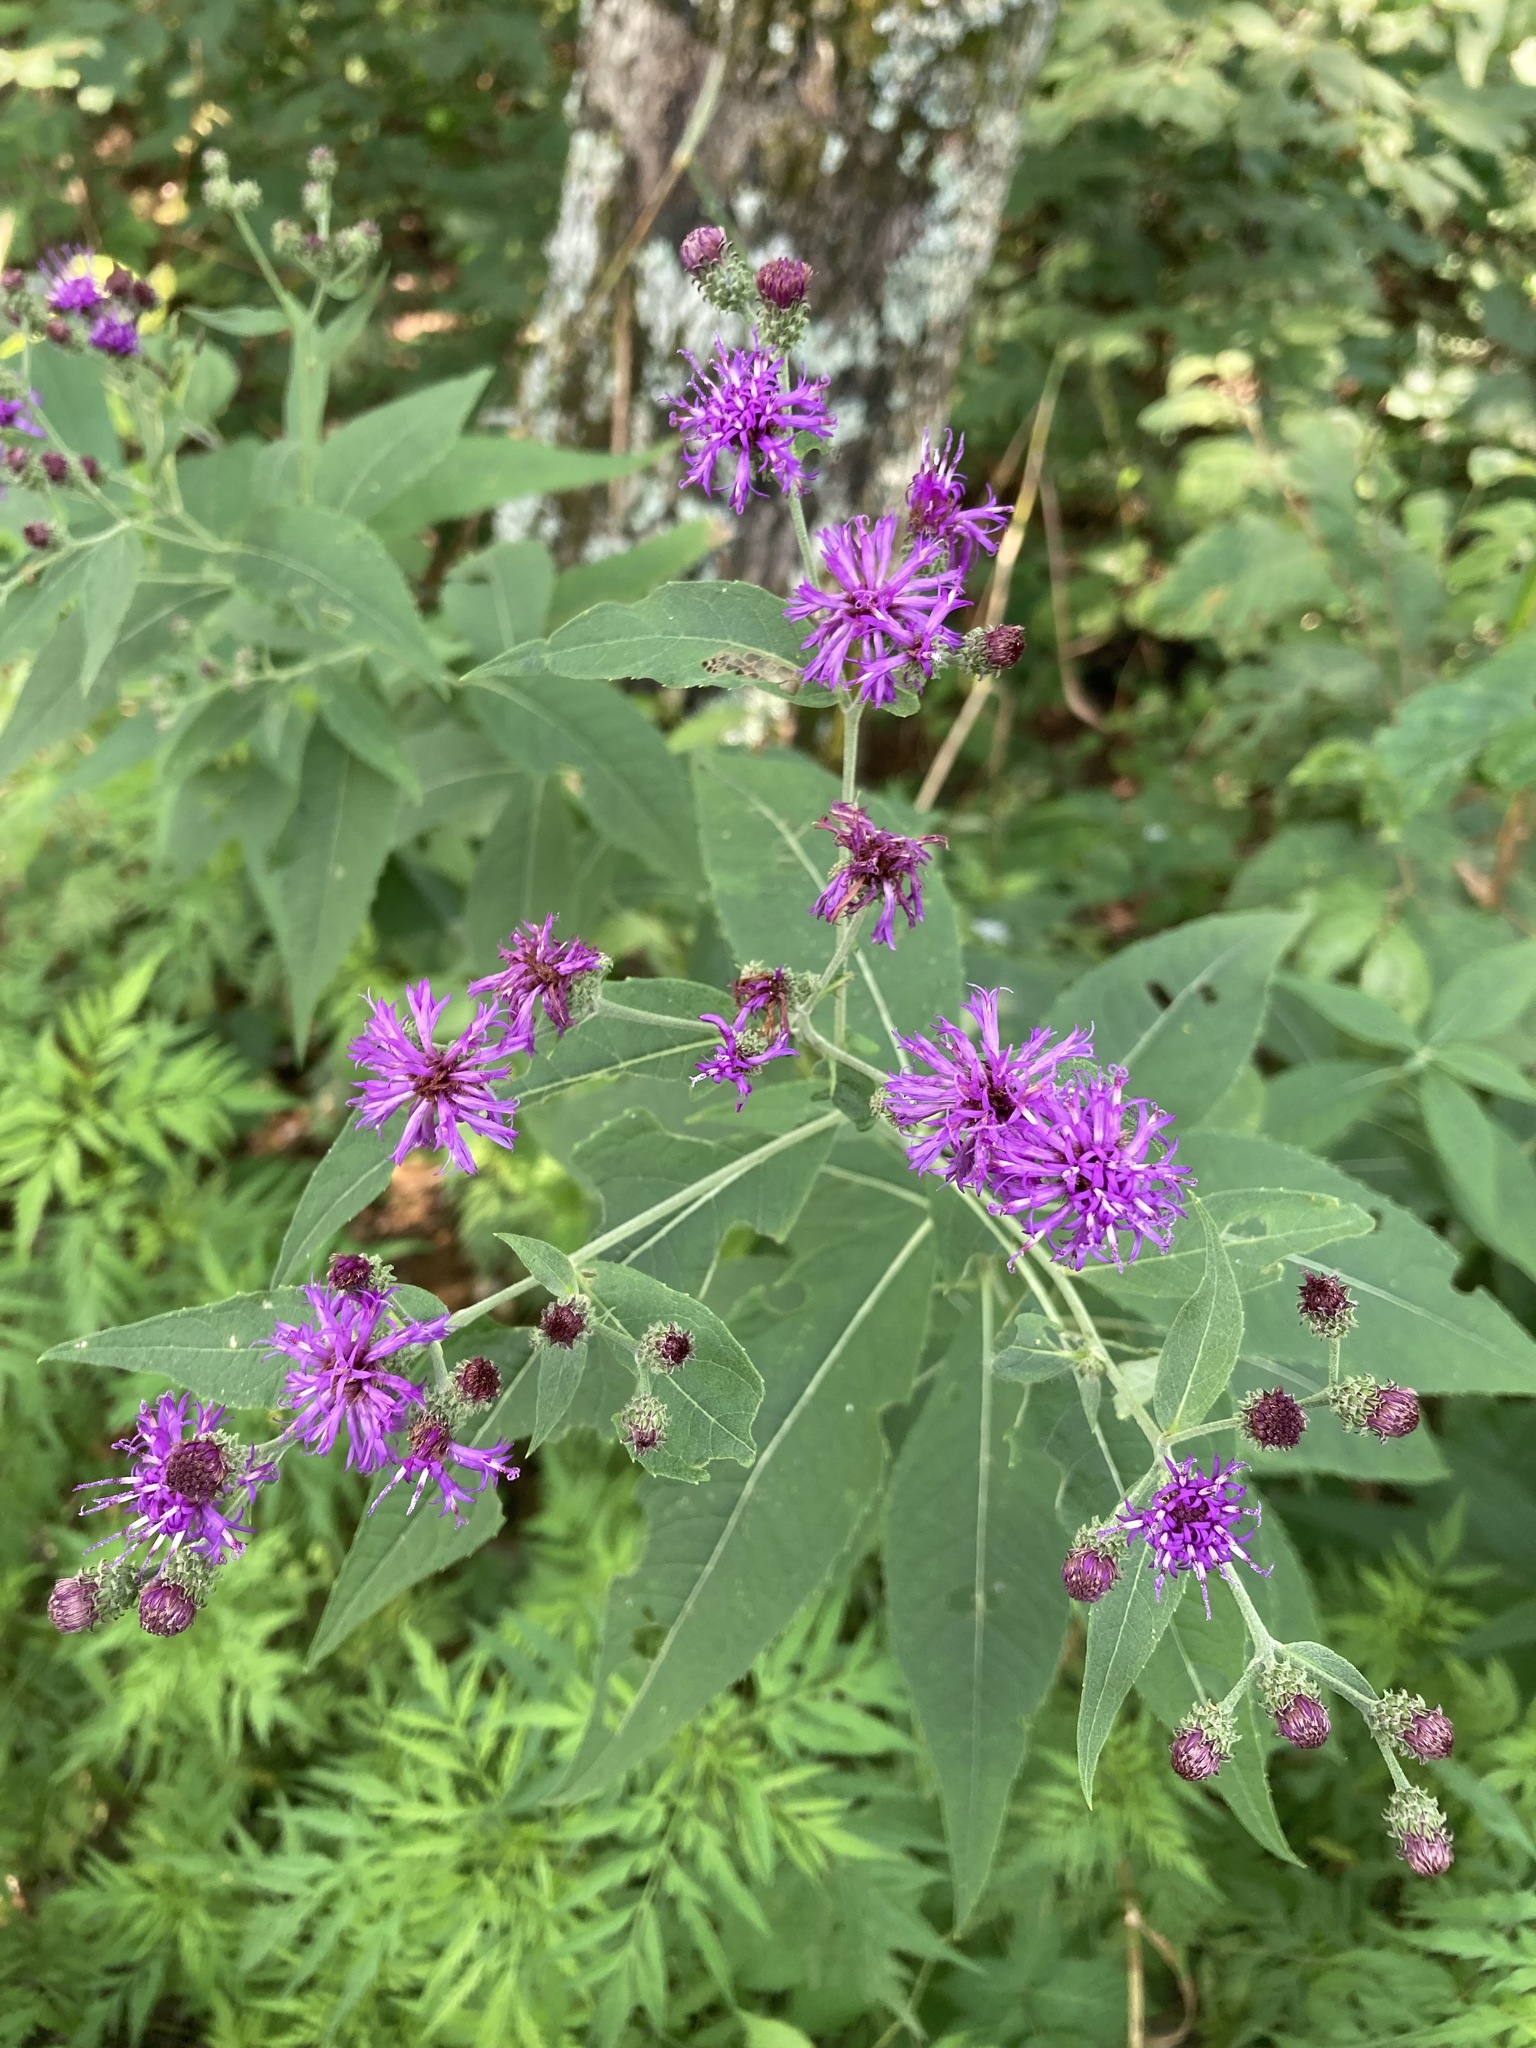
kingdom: Plantae
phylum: Tracheophyta
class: Magnoliopsida
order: Asterales
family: Asteraceae
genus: Vernonia
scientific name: Vernonia baldwinii
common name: Western ironweed
